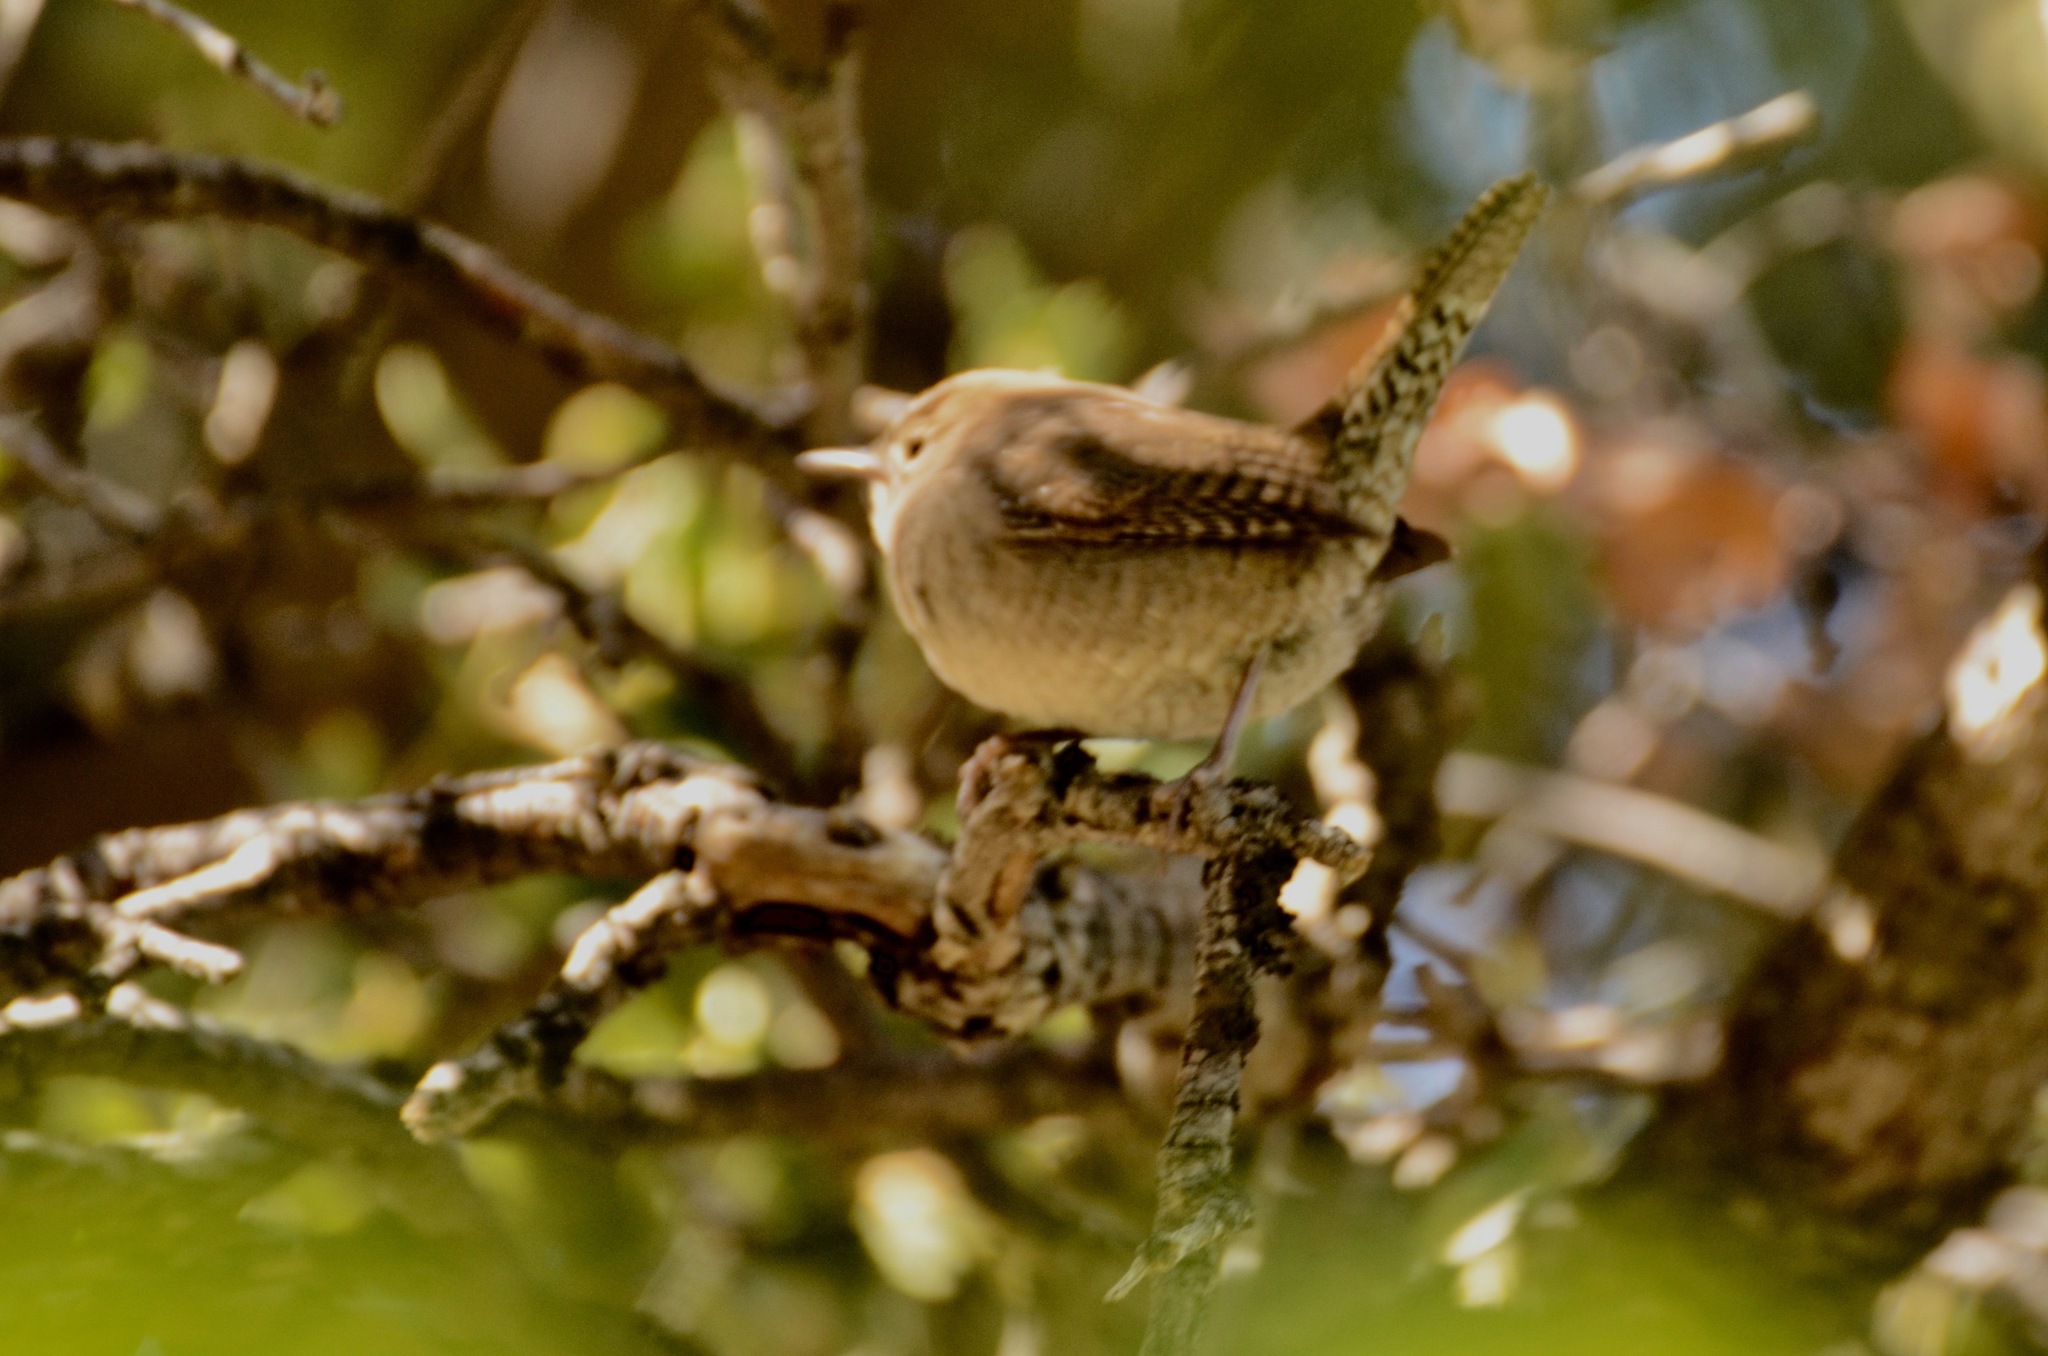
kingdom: Animalia
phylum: Chordata
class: Aves
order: Passeriformes
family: Troglodytidae
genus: Troglodytes
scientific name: Troglodytes aedon
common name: House wren
